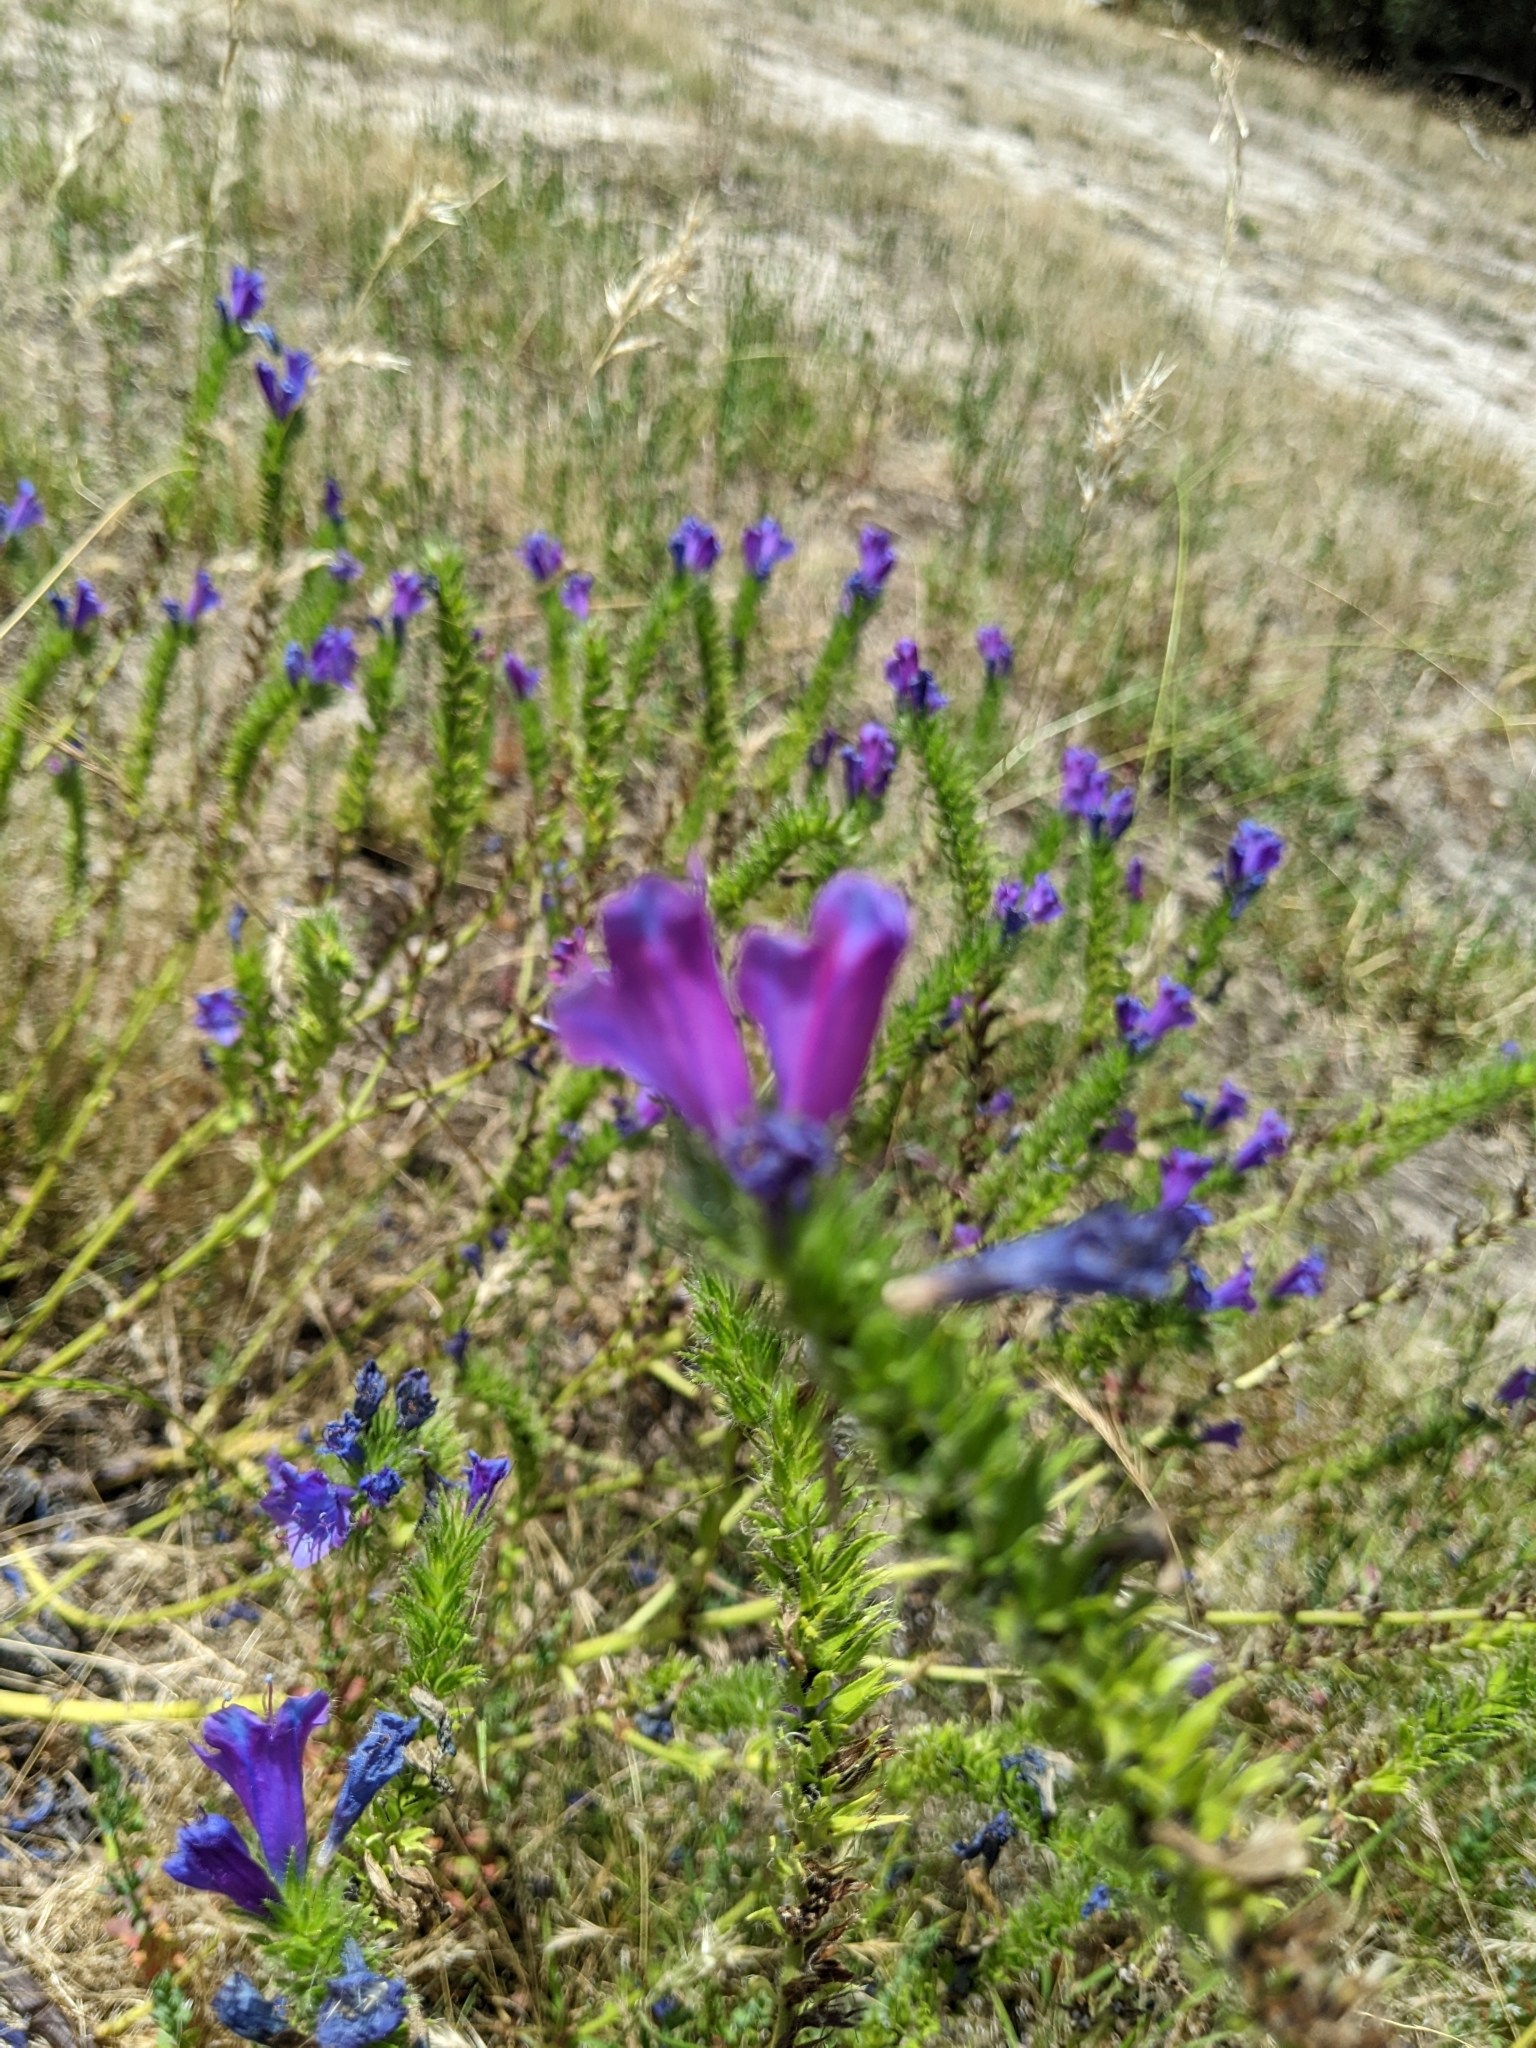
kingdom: Plantae
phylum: Tracheophyta
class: Magnoliopsida
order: Boraginales
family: Boraginaceae
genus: Echium
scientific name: Echium plantagineum
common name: Purple viper's-bugloss
